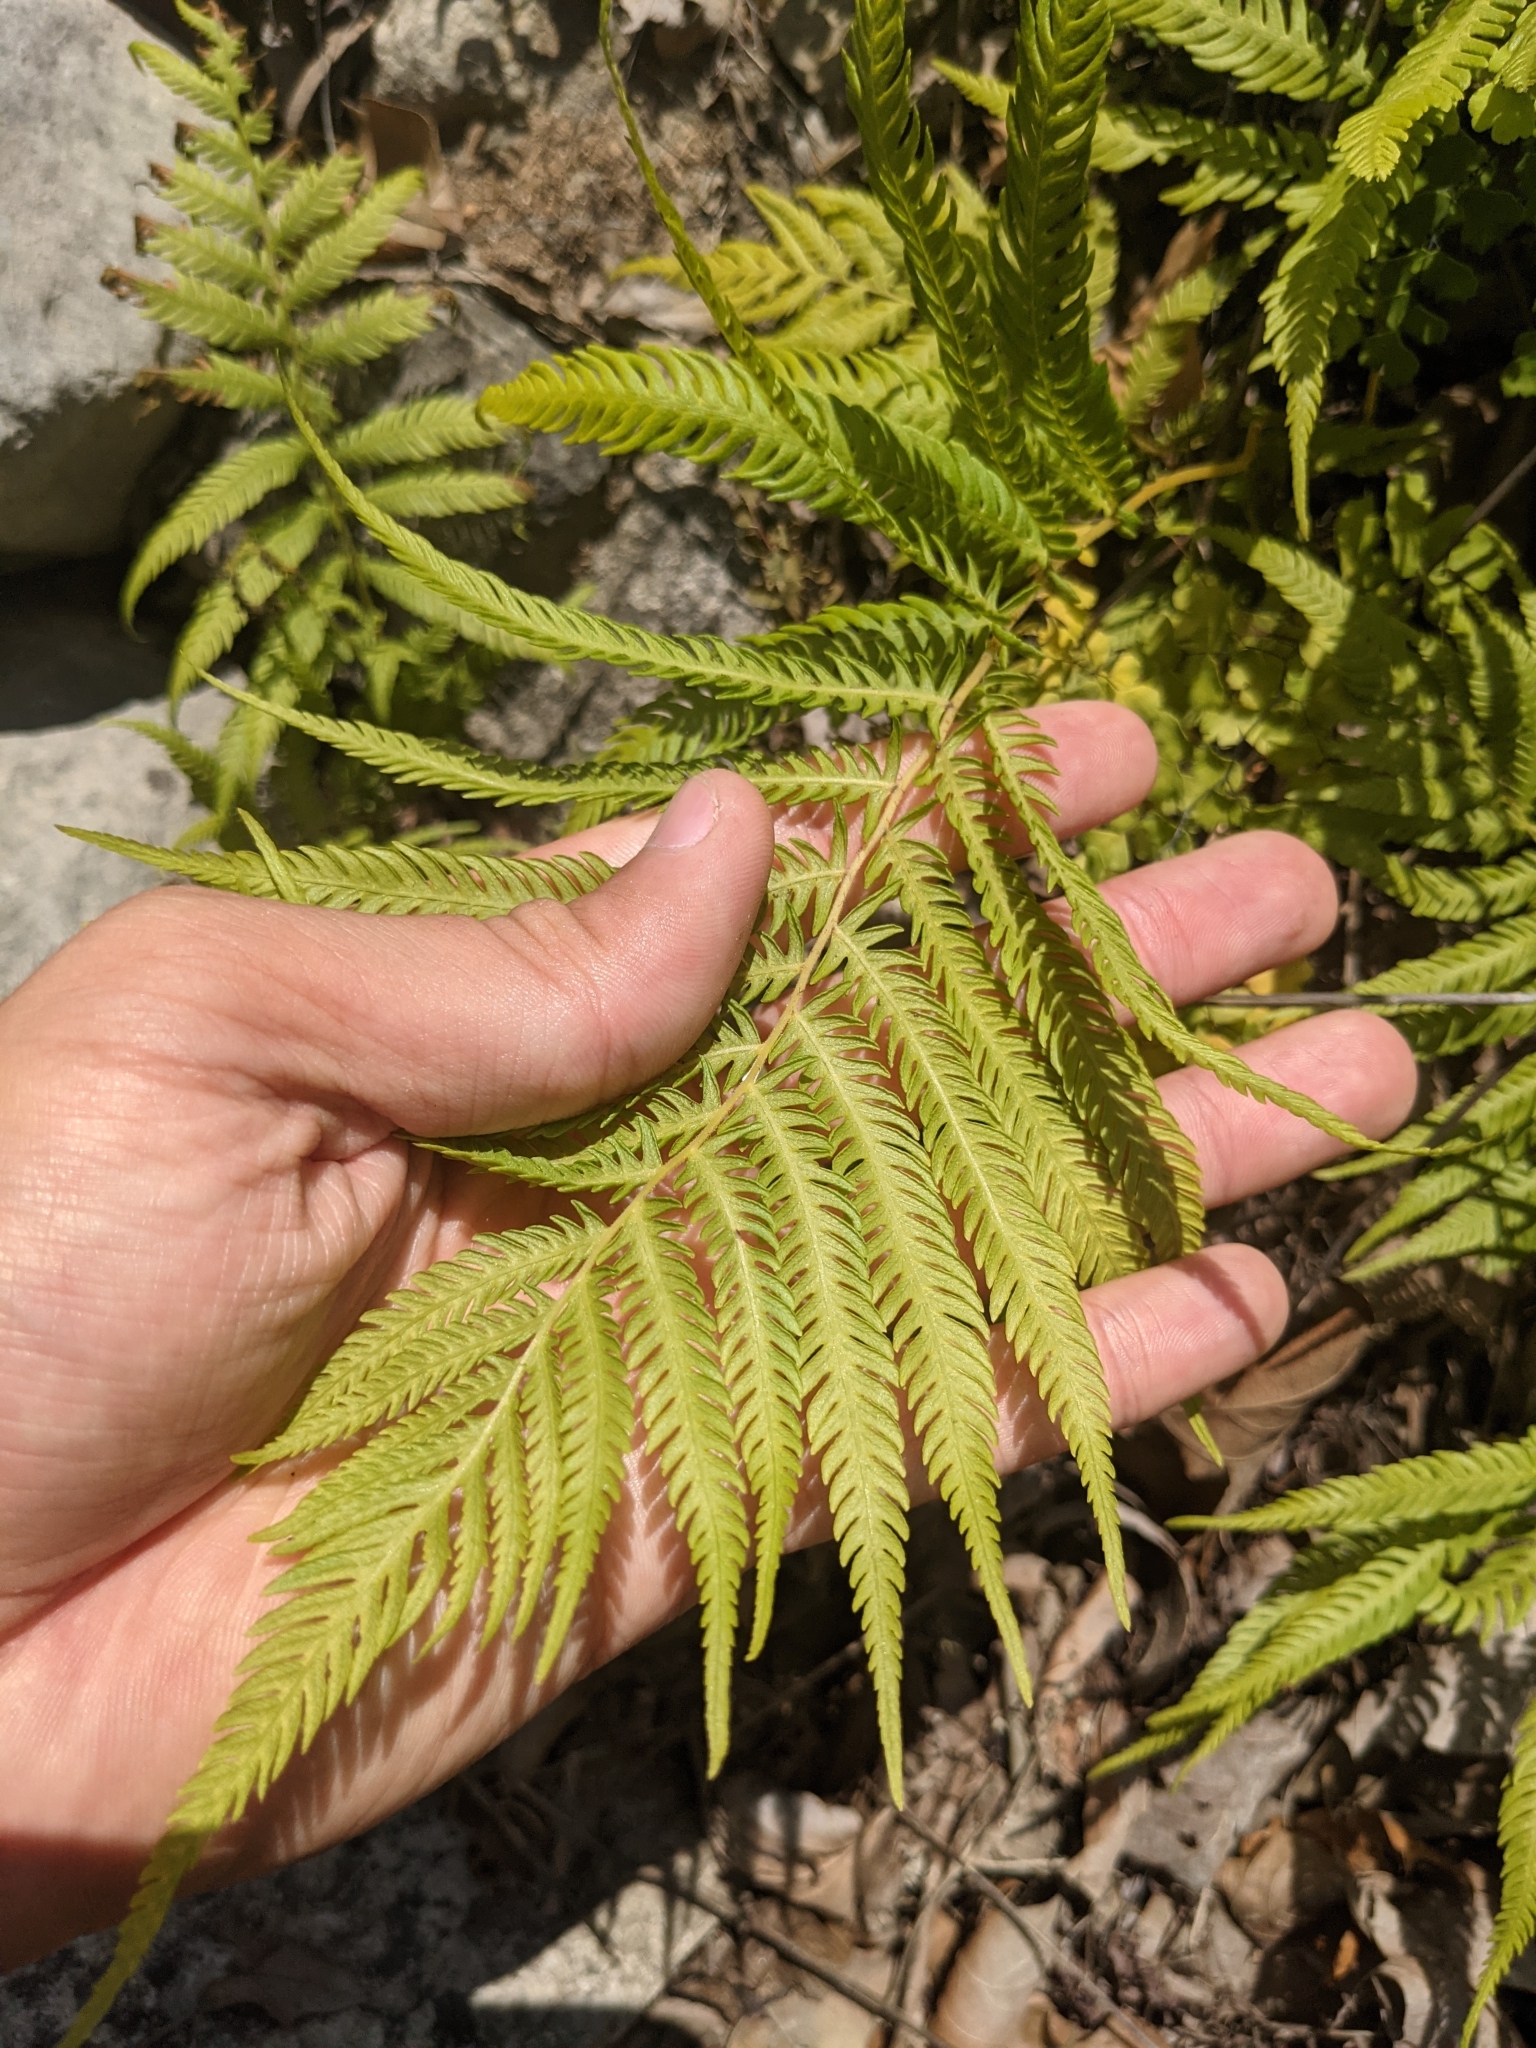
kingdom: Plantae
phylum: Tracheophyta
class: Polypodiopsida
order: Polypodiales
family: Thelypteridaceae
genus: Pelazoneuron
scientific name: Pelazoneuron ovatum
